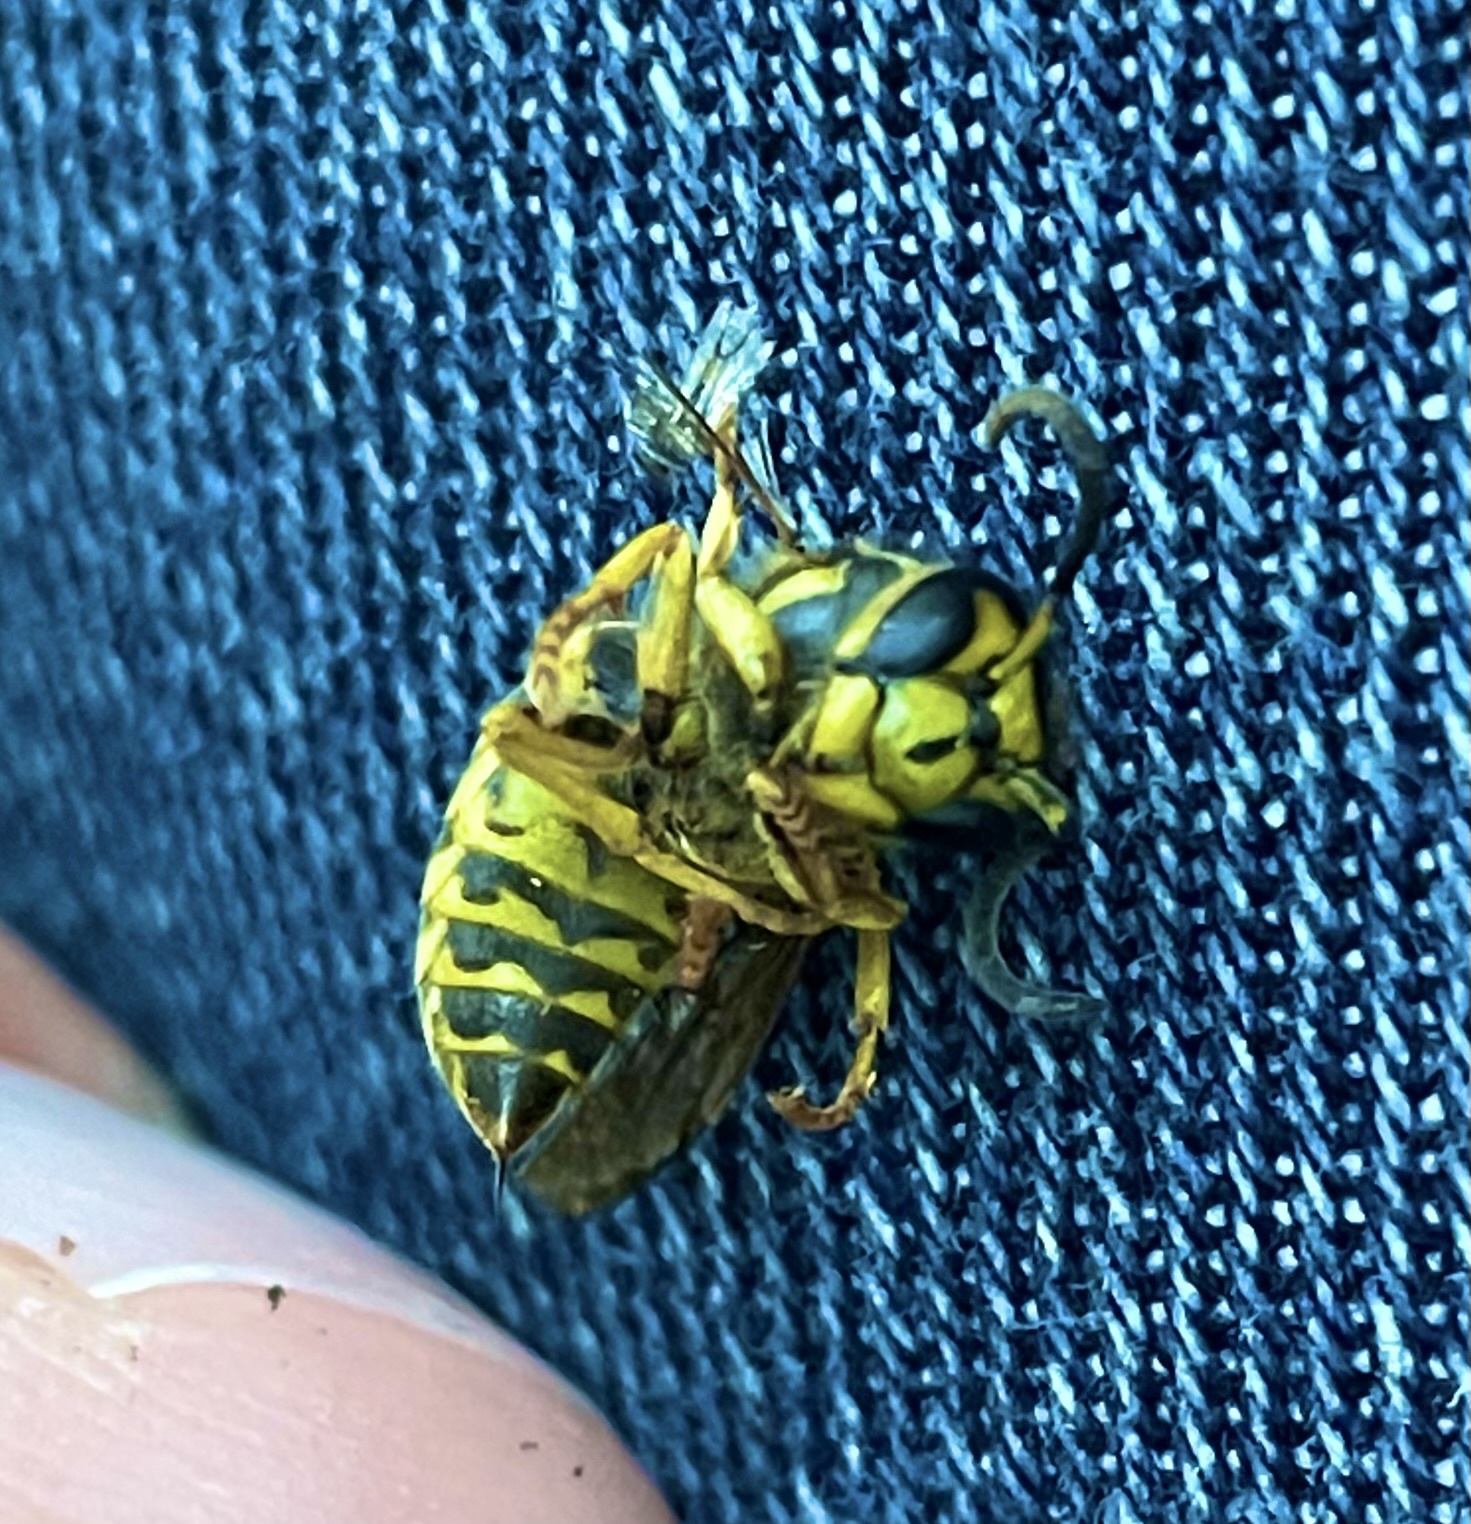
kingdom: Animalia
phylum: Arthropoda
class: Insecta
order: Hymenoptera
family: Vespidae
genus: Vespula
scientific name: Vespula squamosa
